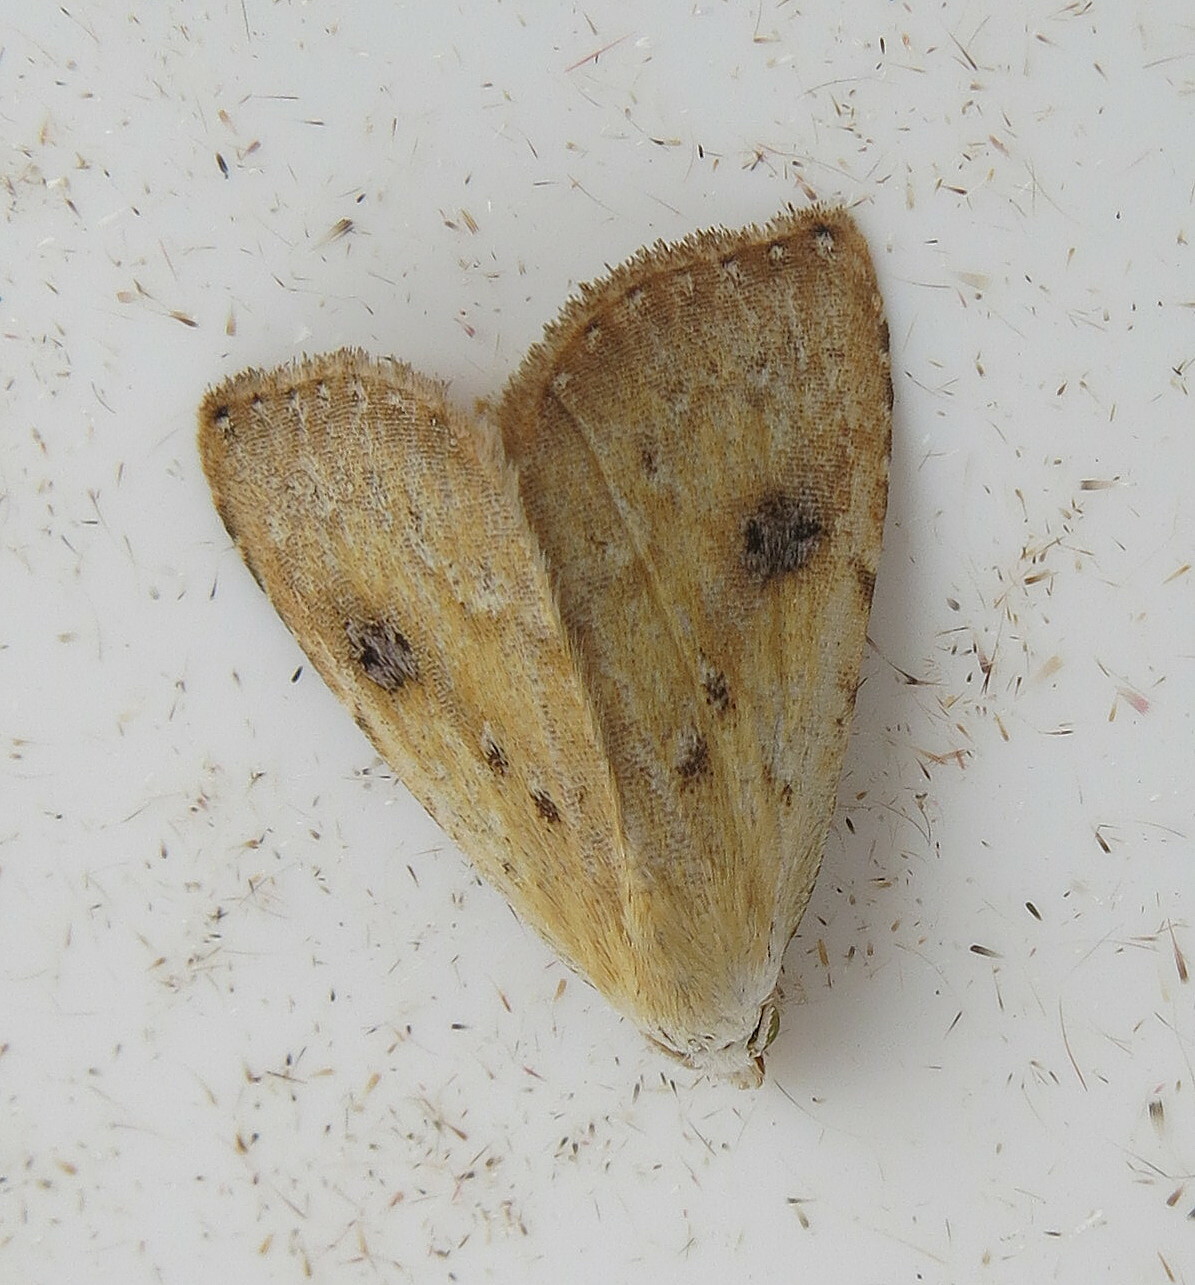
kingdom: Animalia
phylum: Arthropoda
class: Insecta
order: Lepidoptera
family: Erebidae
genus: Rivula
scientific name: Rivula sericealis
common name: Straw dot
